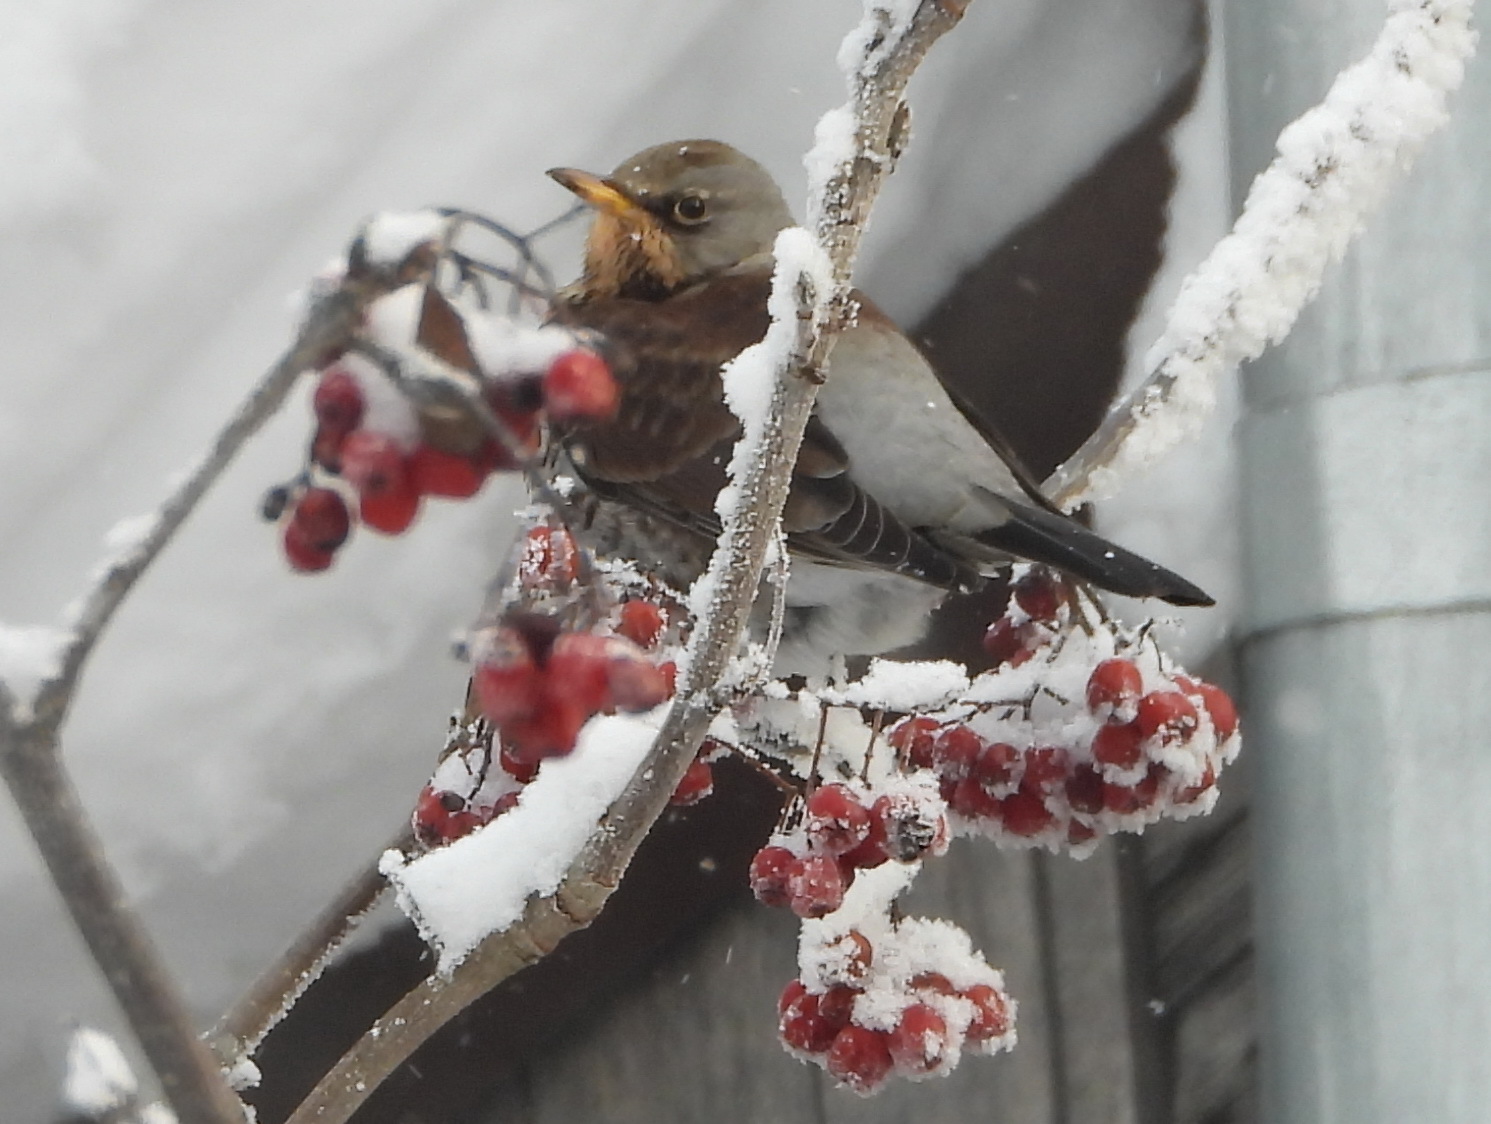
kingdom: Animalia
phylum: Chordata
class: Aves
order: Passeriformes
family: Turdidae
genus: Turdus
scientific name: Turdus pilaris
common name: Fieldfare
